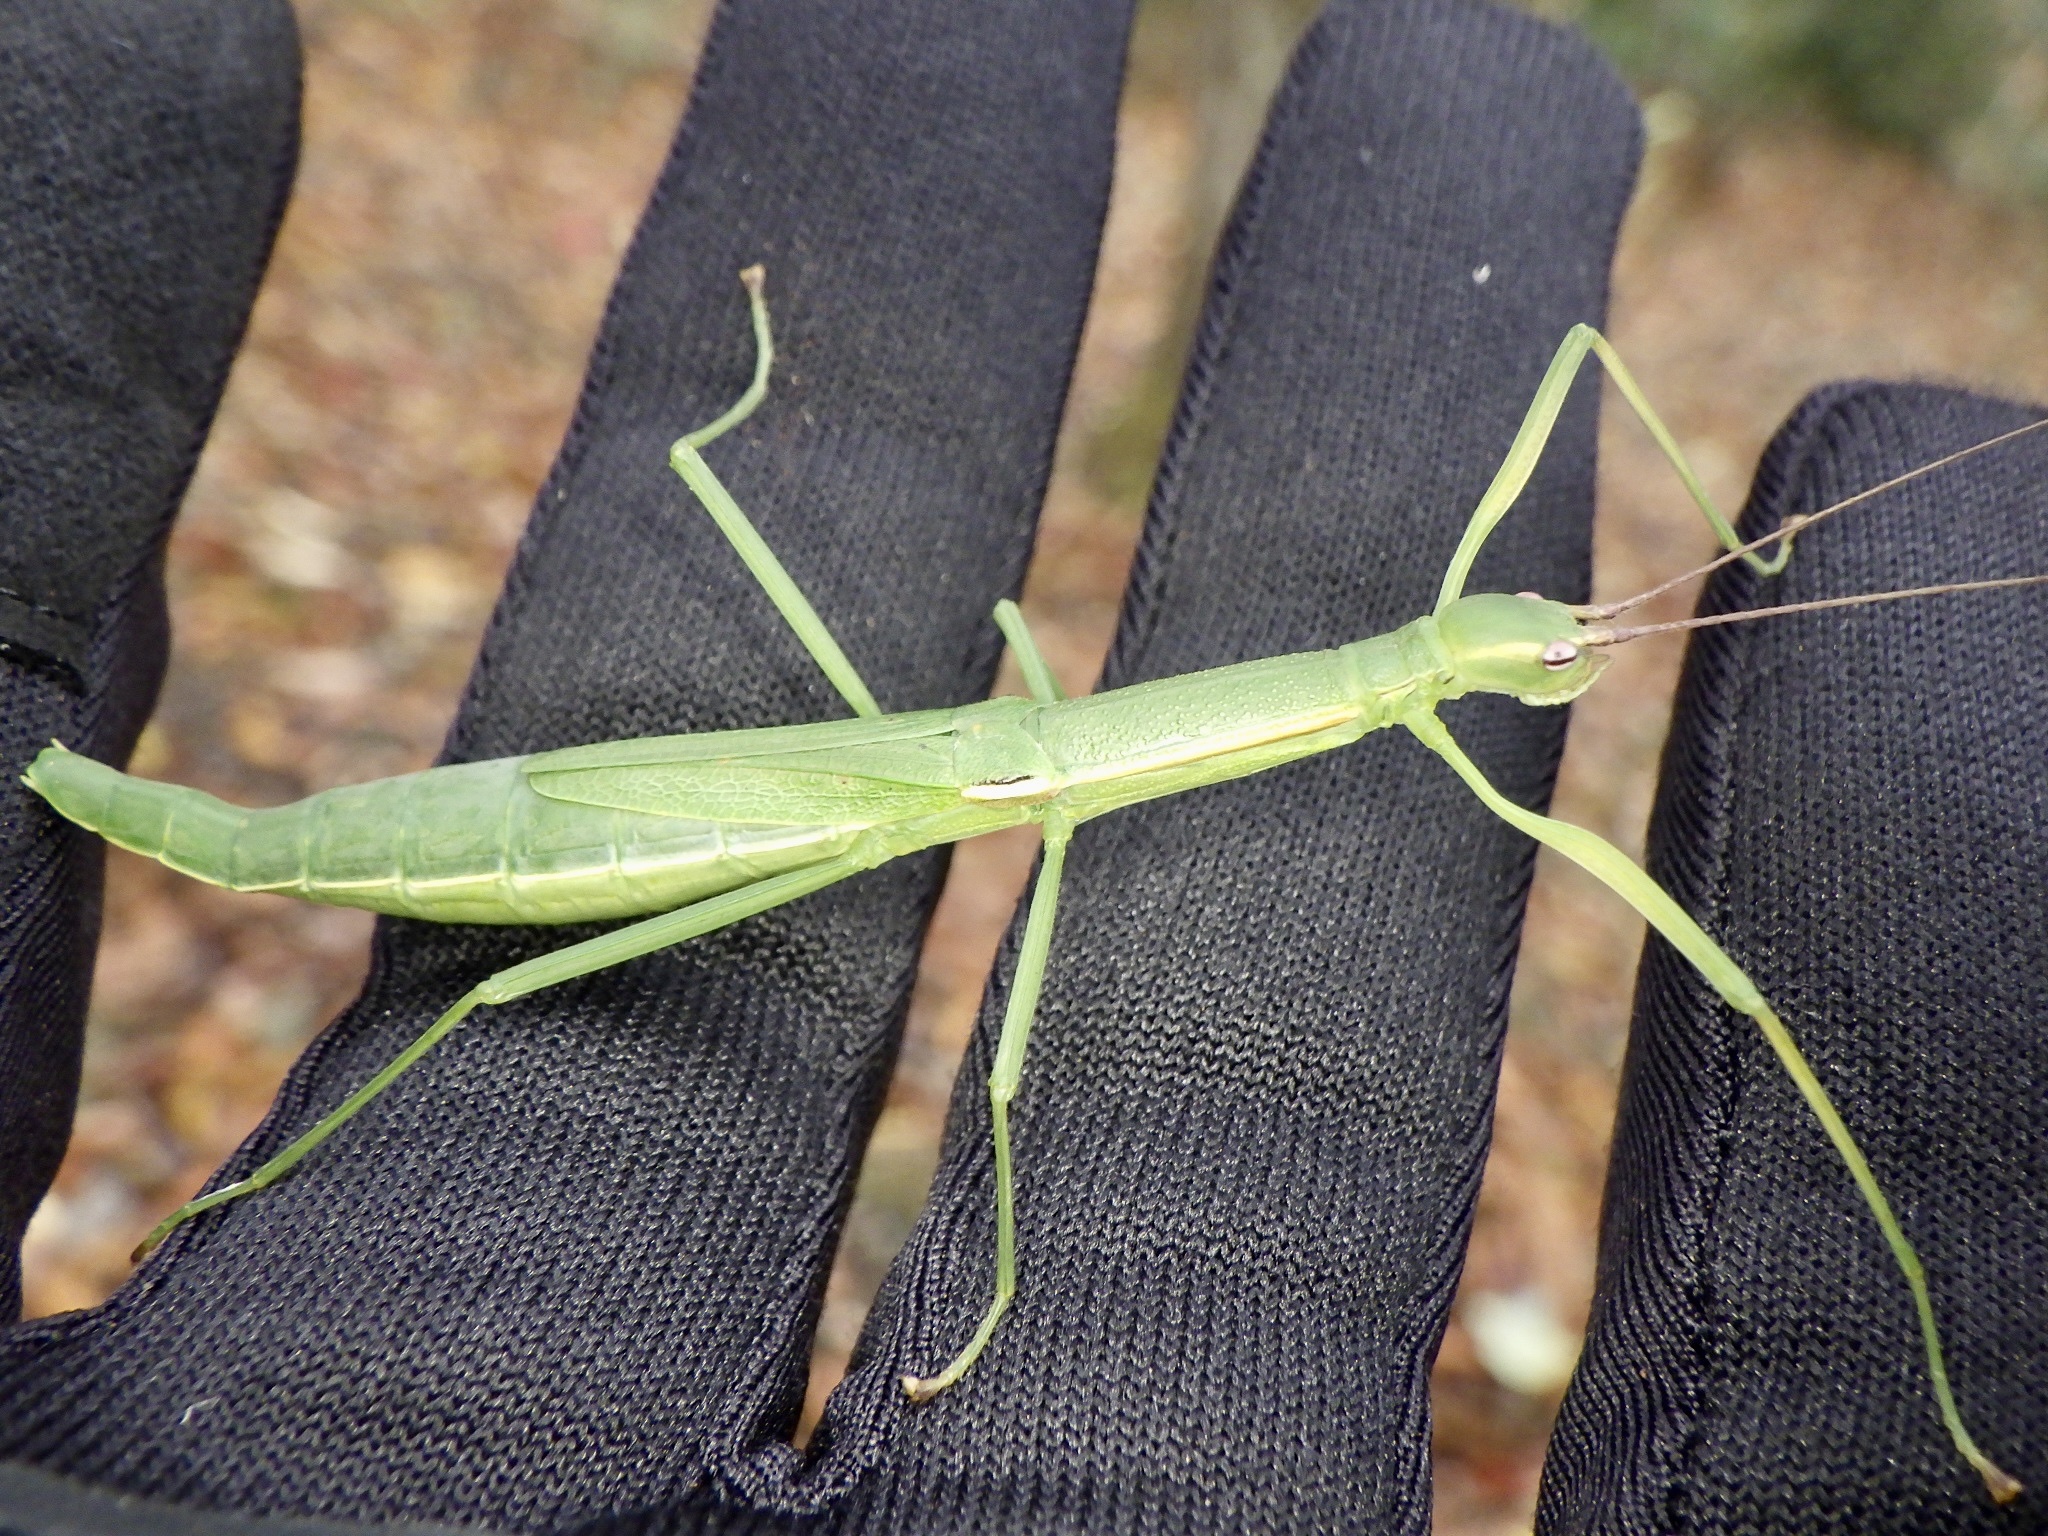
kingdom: Animalia
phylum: Arthropoda
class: Insecta
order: Phasmida
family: Lonchodidae
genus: Micadina
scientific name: Micadina phluctainoides
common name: Japanese winged stick-insect
